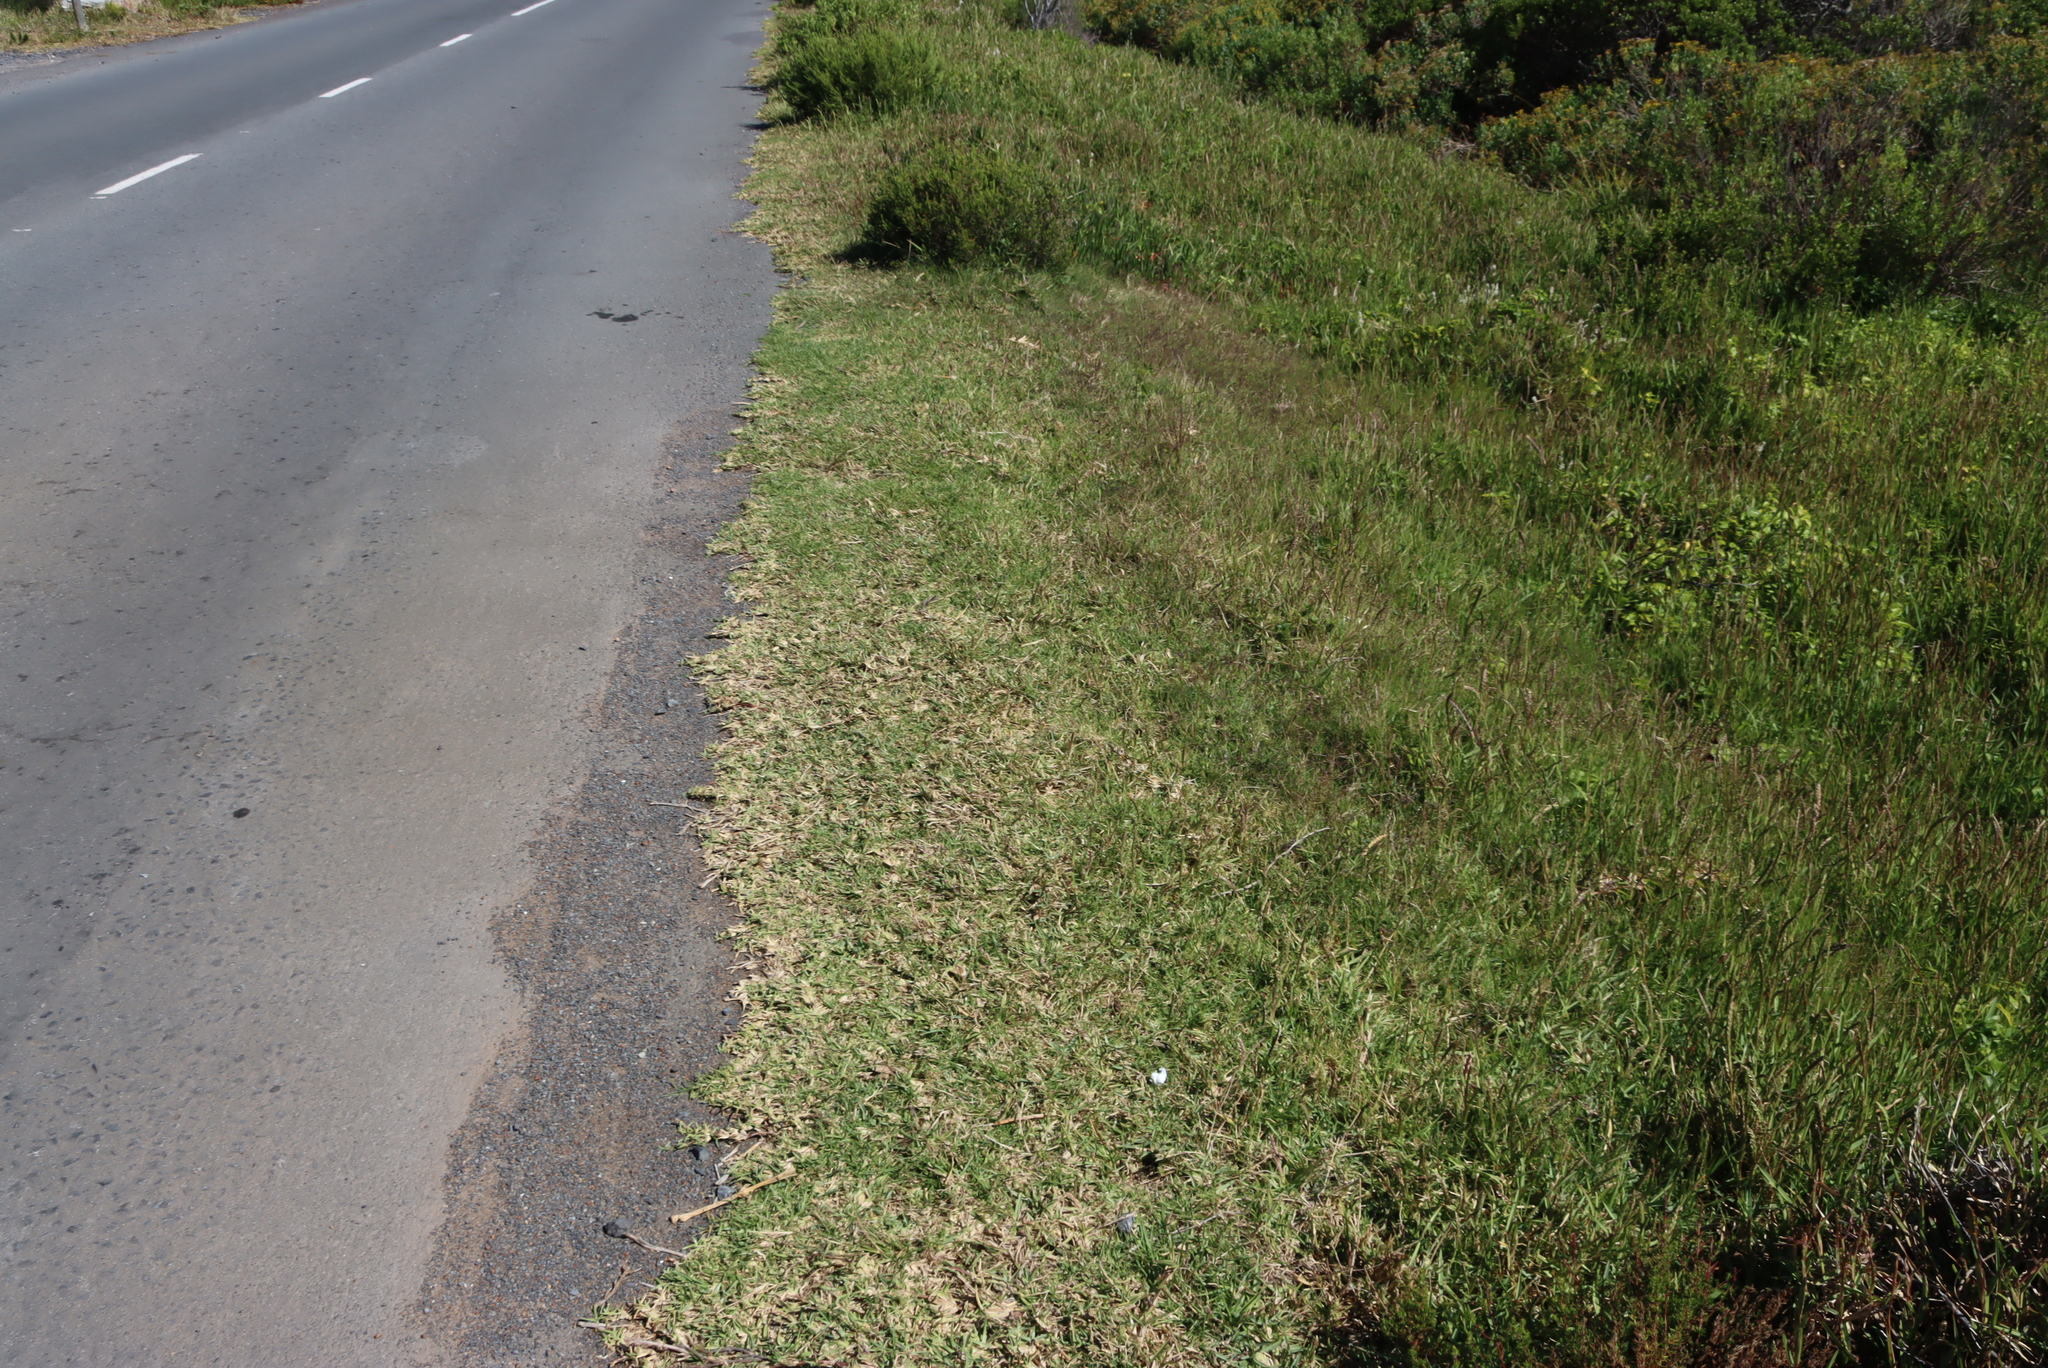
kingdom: Plantae
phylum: Tracheophyta
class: Liliopsida
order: Poales
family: Poaceae
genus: Stenotaphrum
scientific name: Stenotaphrum secundatum
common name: St. augustine grass
